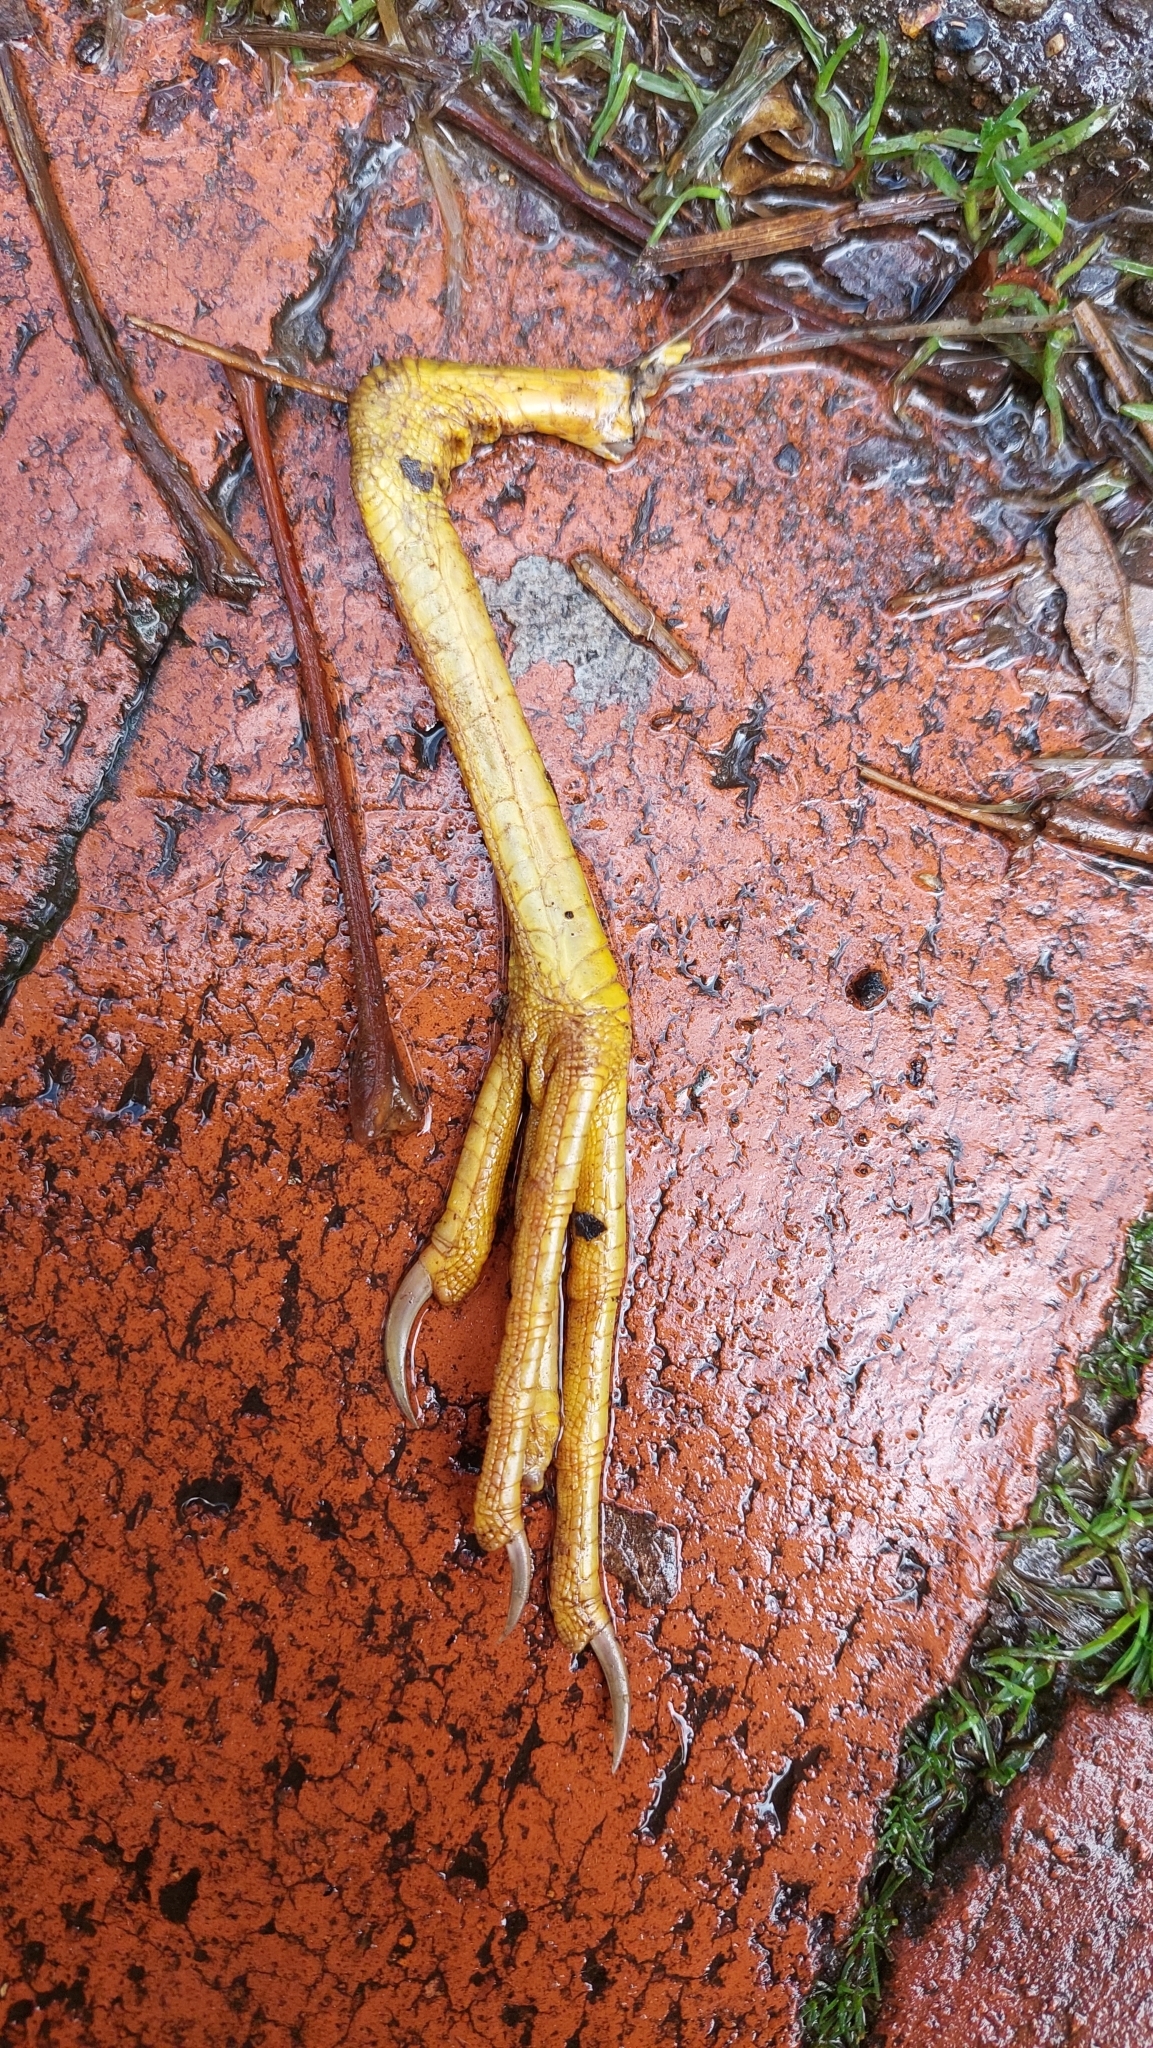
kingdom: Animalia
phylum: Chordata
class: Aves
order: Gruiformes
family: Rallidae
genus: Porphyrio
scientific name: Porphyrio martinica
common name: Purple gallinule
